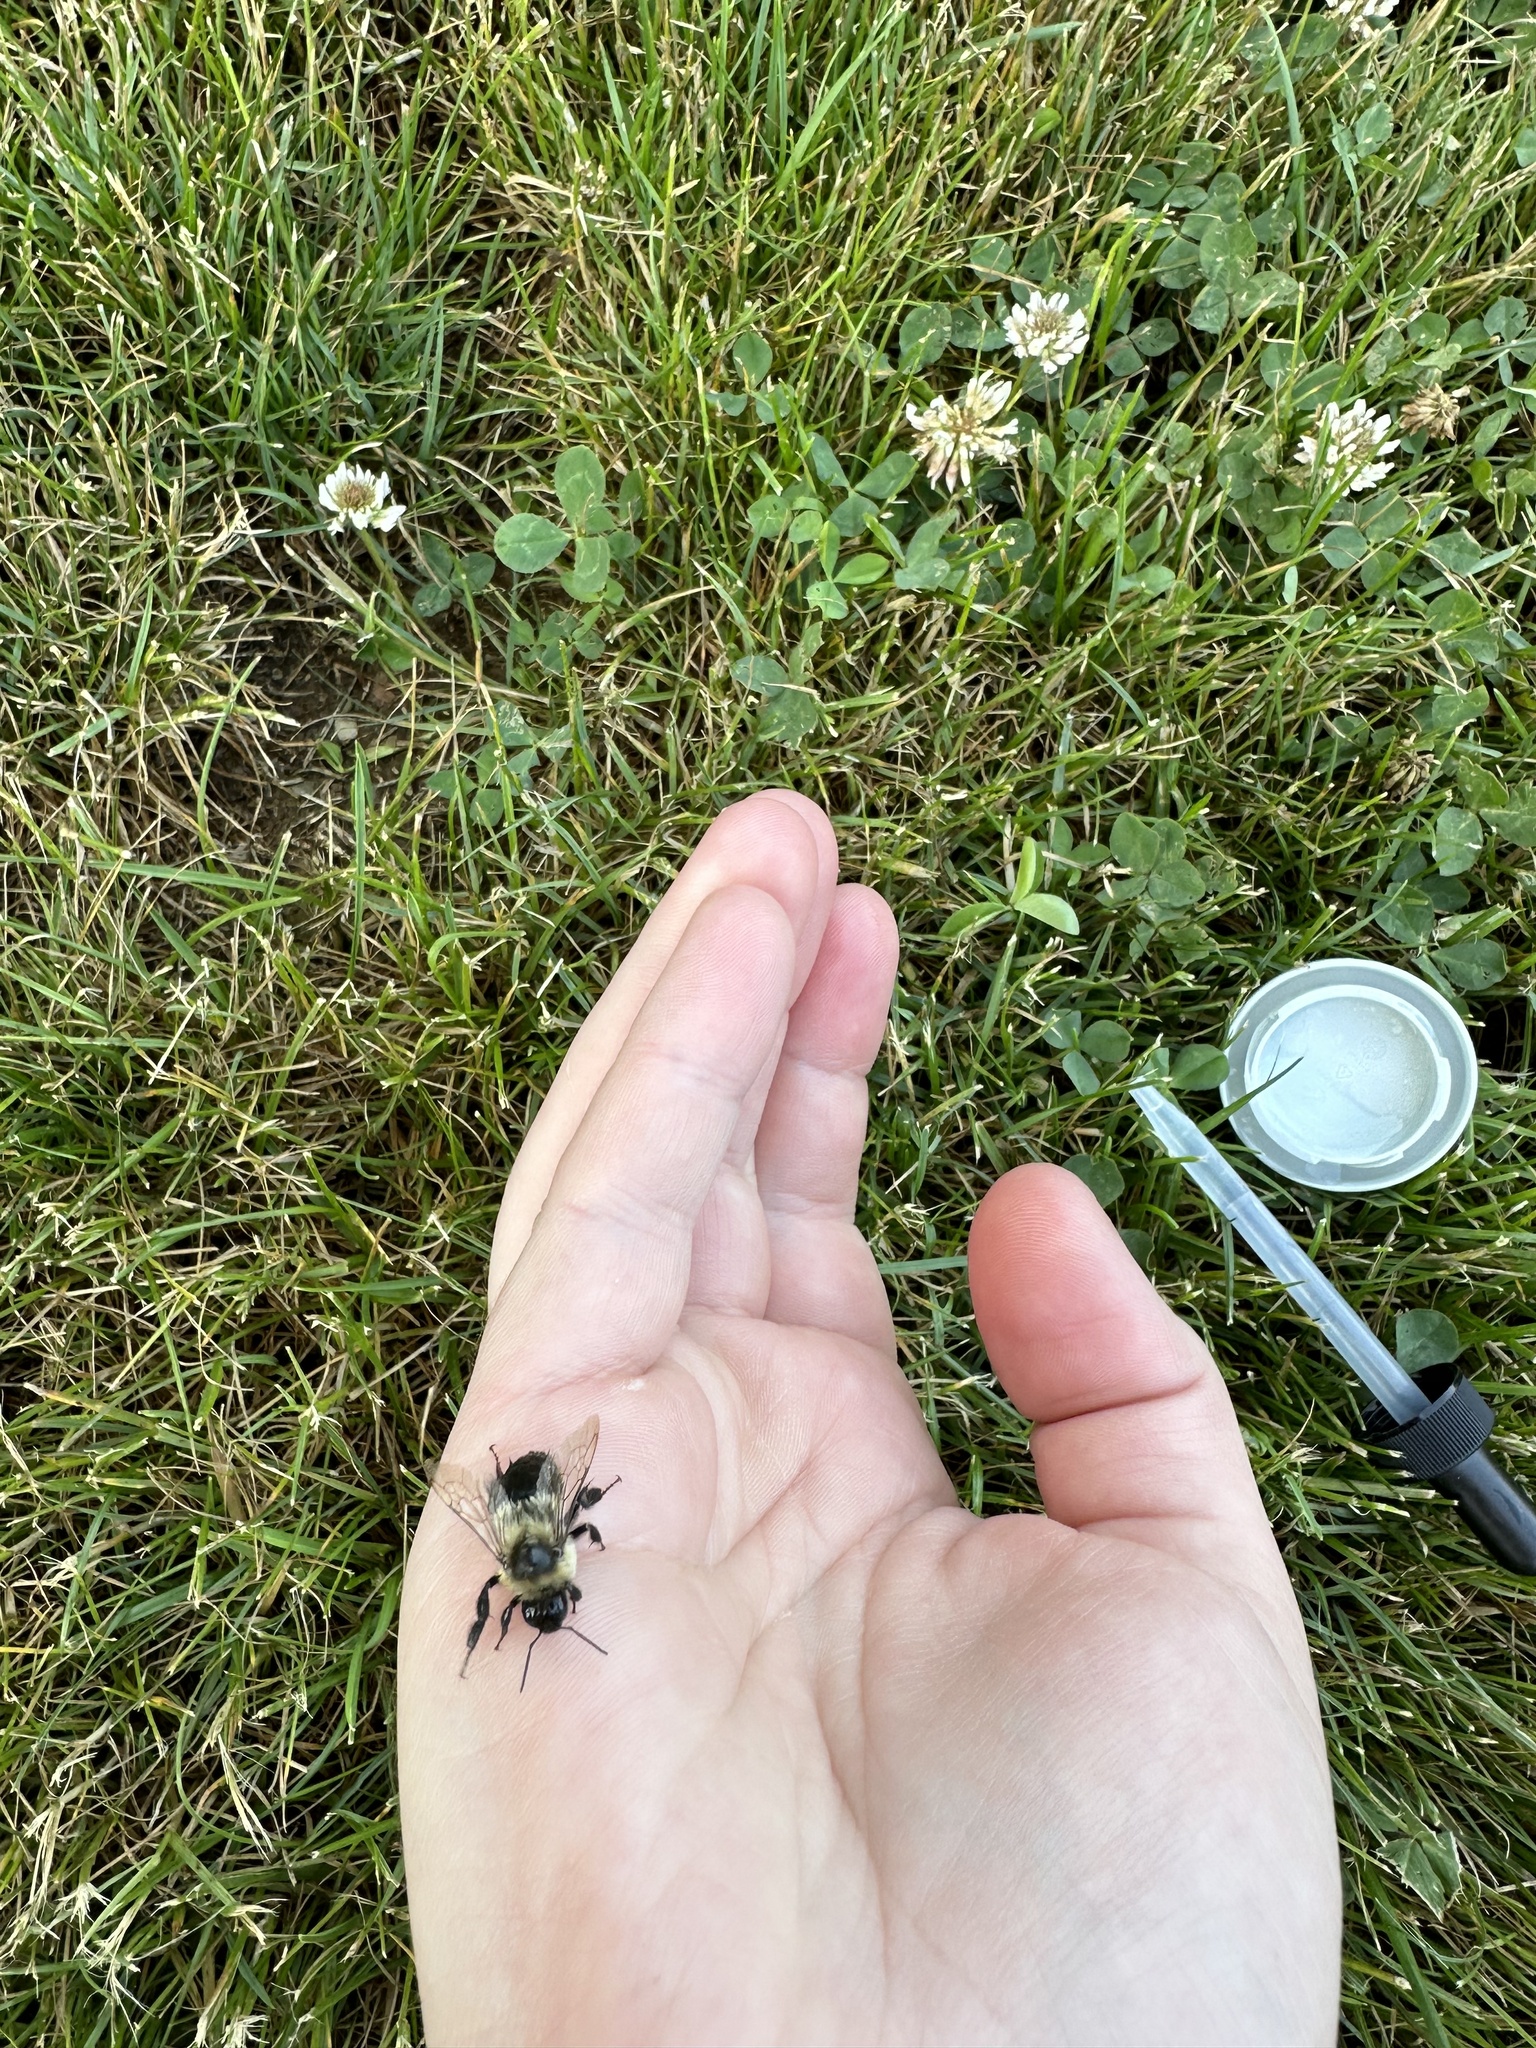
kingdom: Animalia
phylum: Arthropoda
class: Insecta
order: Hymenoptera
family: Apidae
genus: Bombus
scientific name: Bombus impatiens
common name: Common eastern bumble bee
